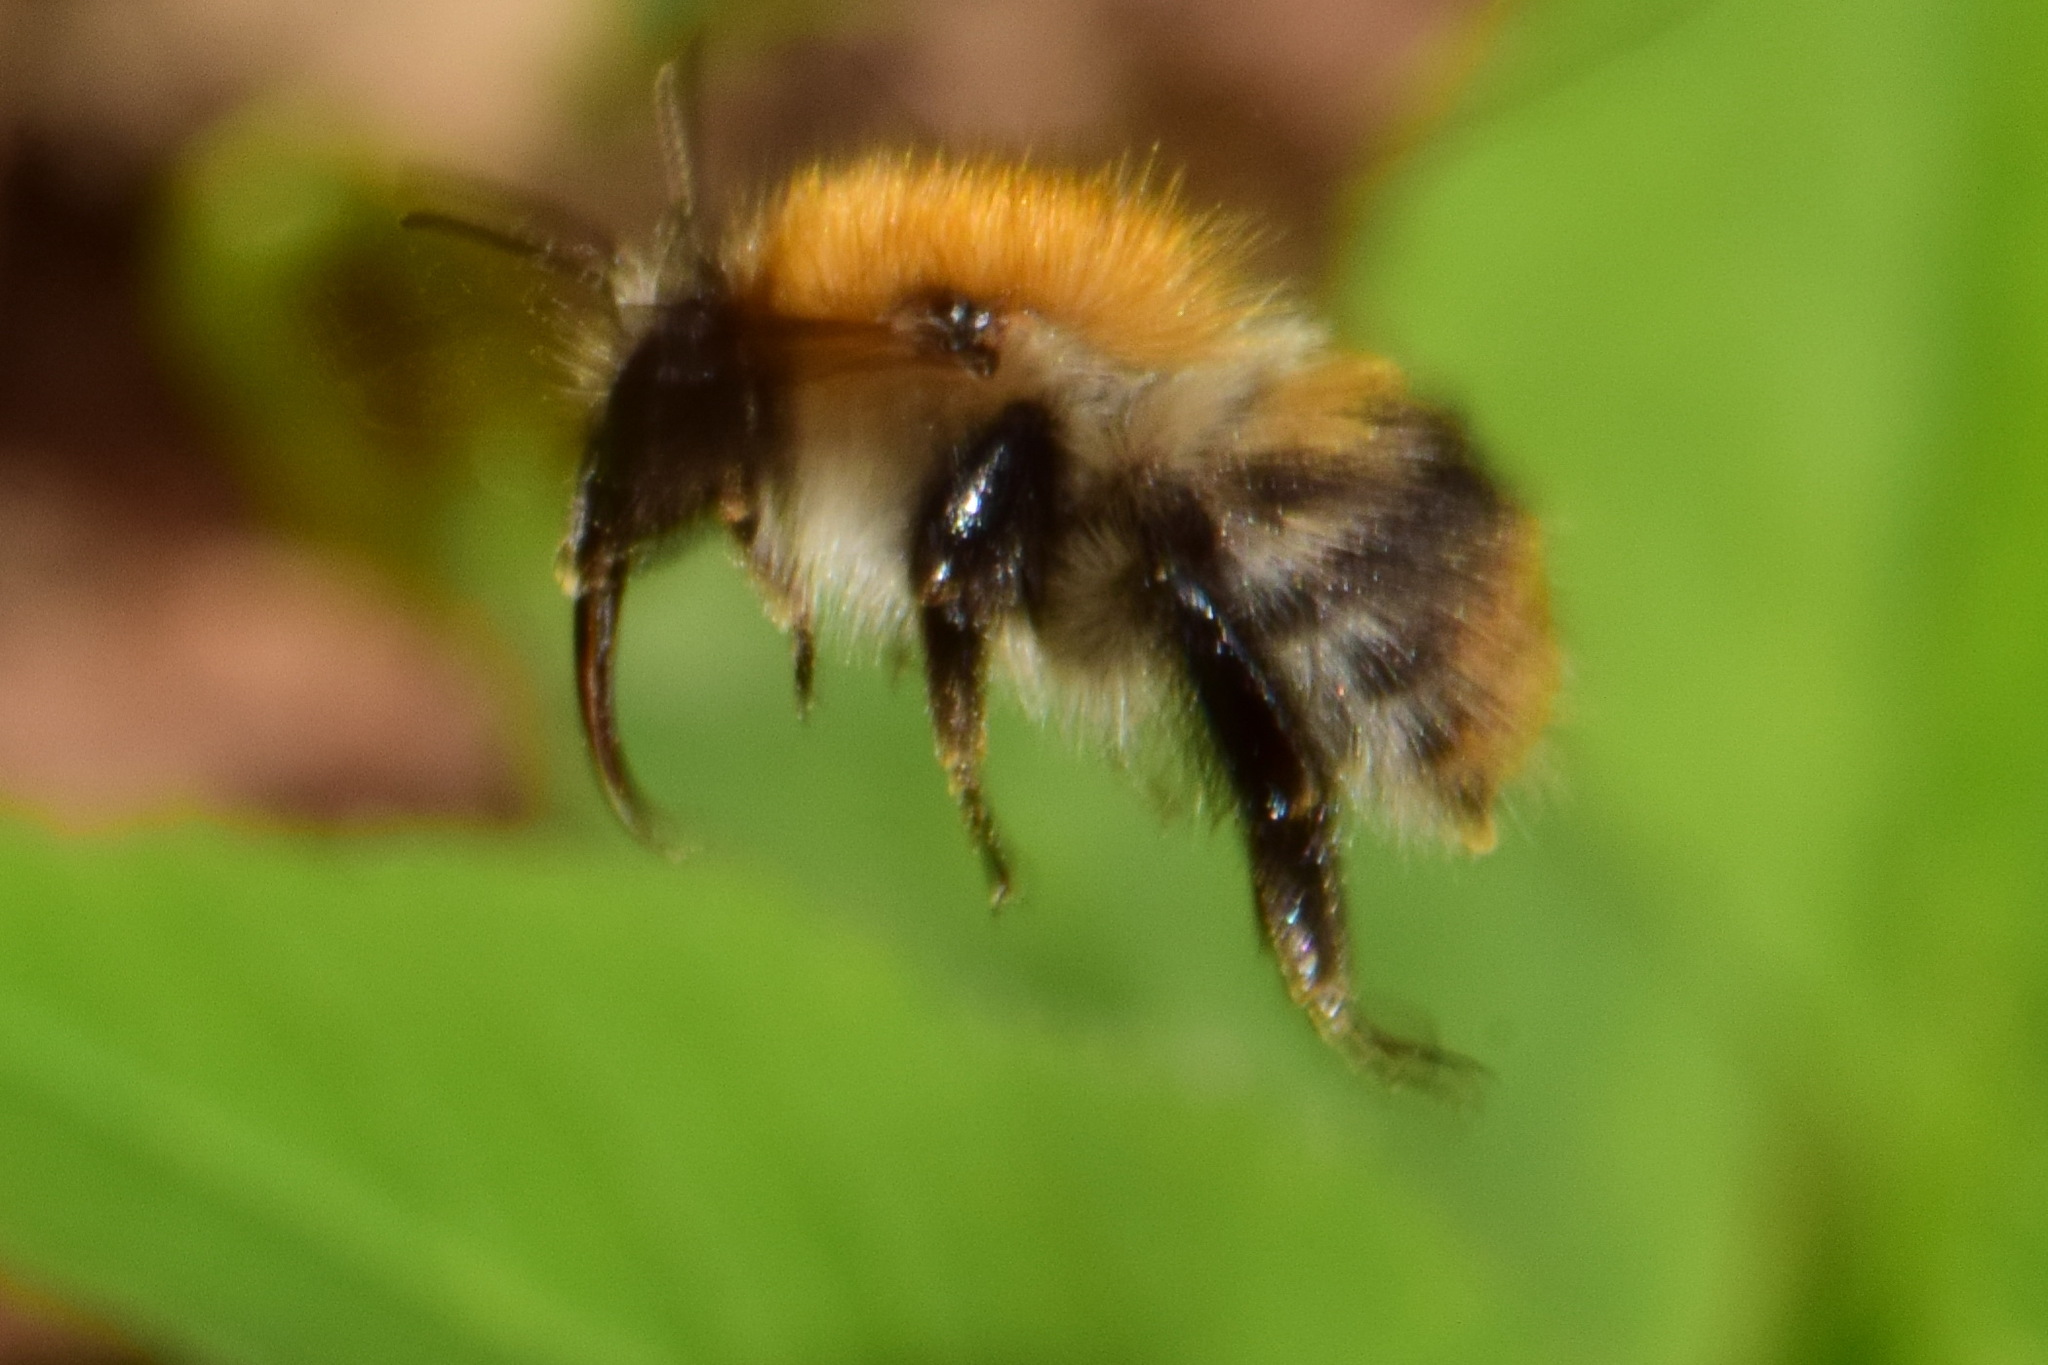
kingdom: Animalia
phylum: Arthropoda
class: Insecta
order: Hymenoptera
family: Apidae
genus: Bombus
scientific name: Bombus pascuorum
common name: Common carder bee
